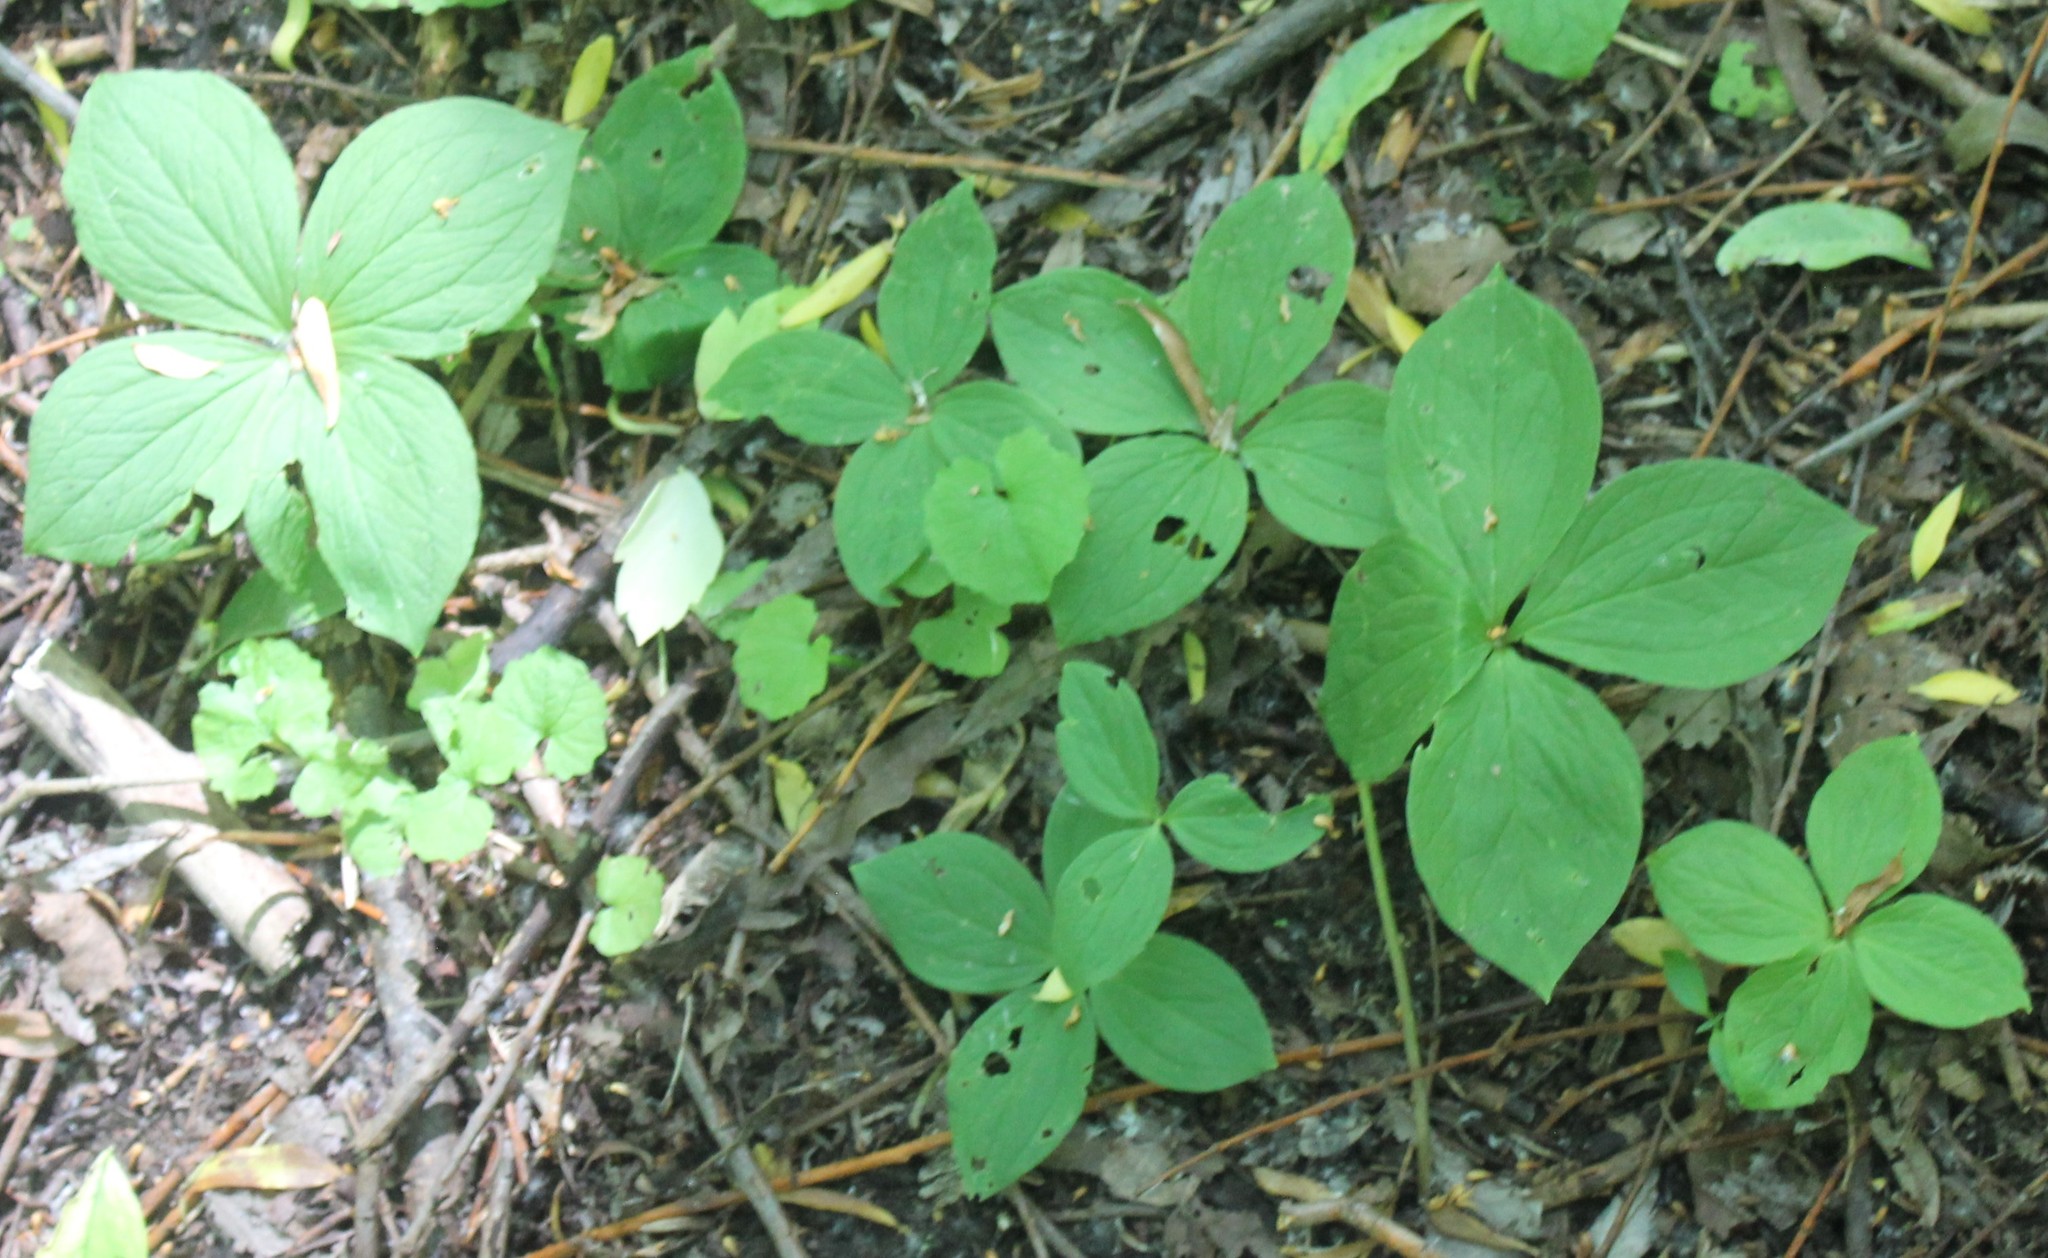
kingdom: Plantae
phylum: Tracheophyta
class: Liliopsida
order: Liliales
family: Melanthiaceae
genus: Paris
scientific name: Paris quadrifolia
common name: Herb-paris
